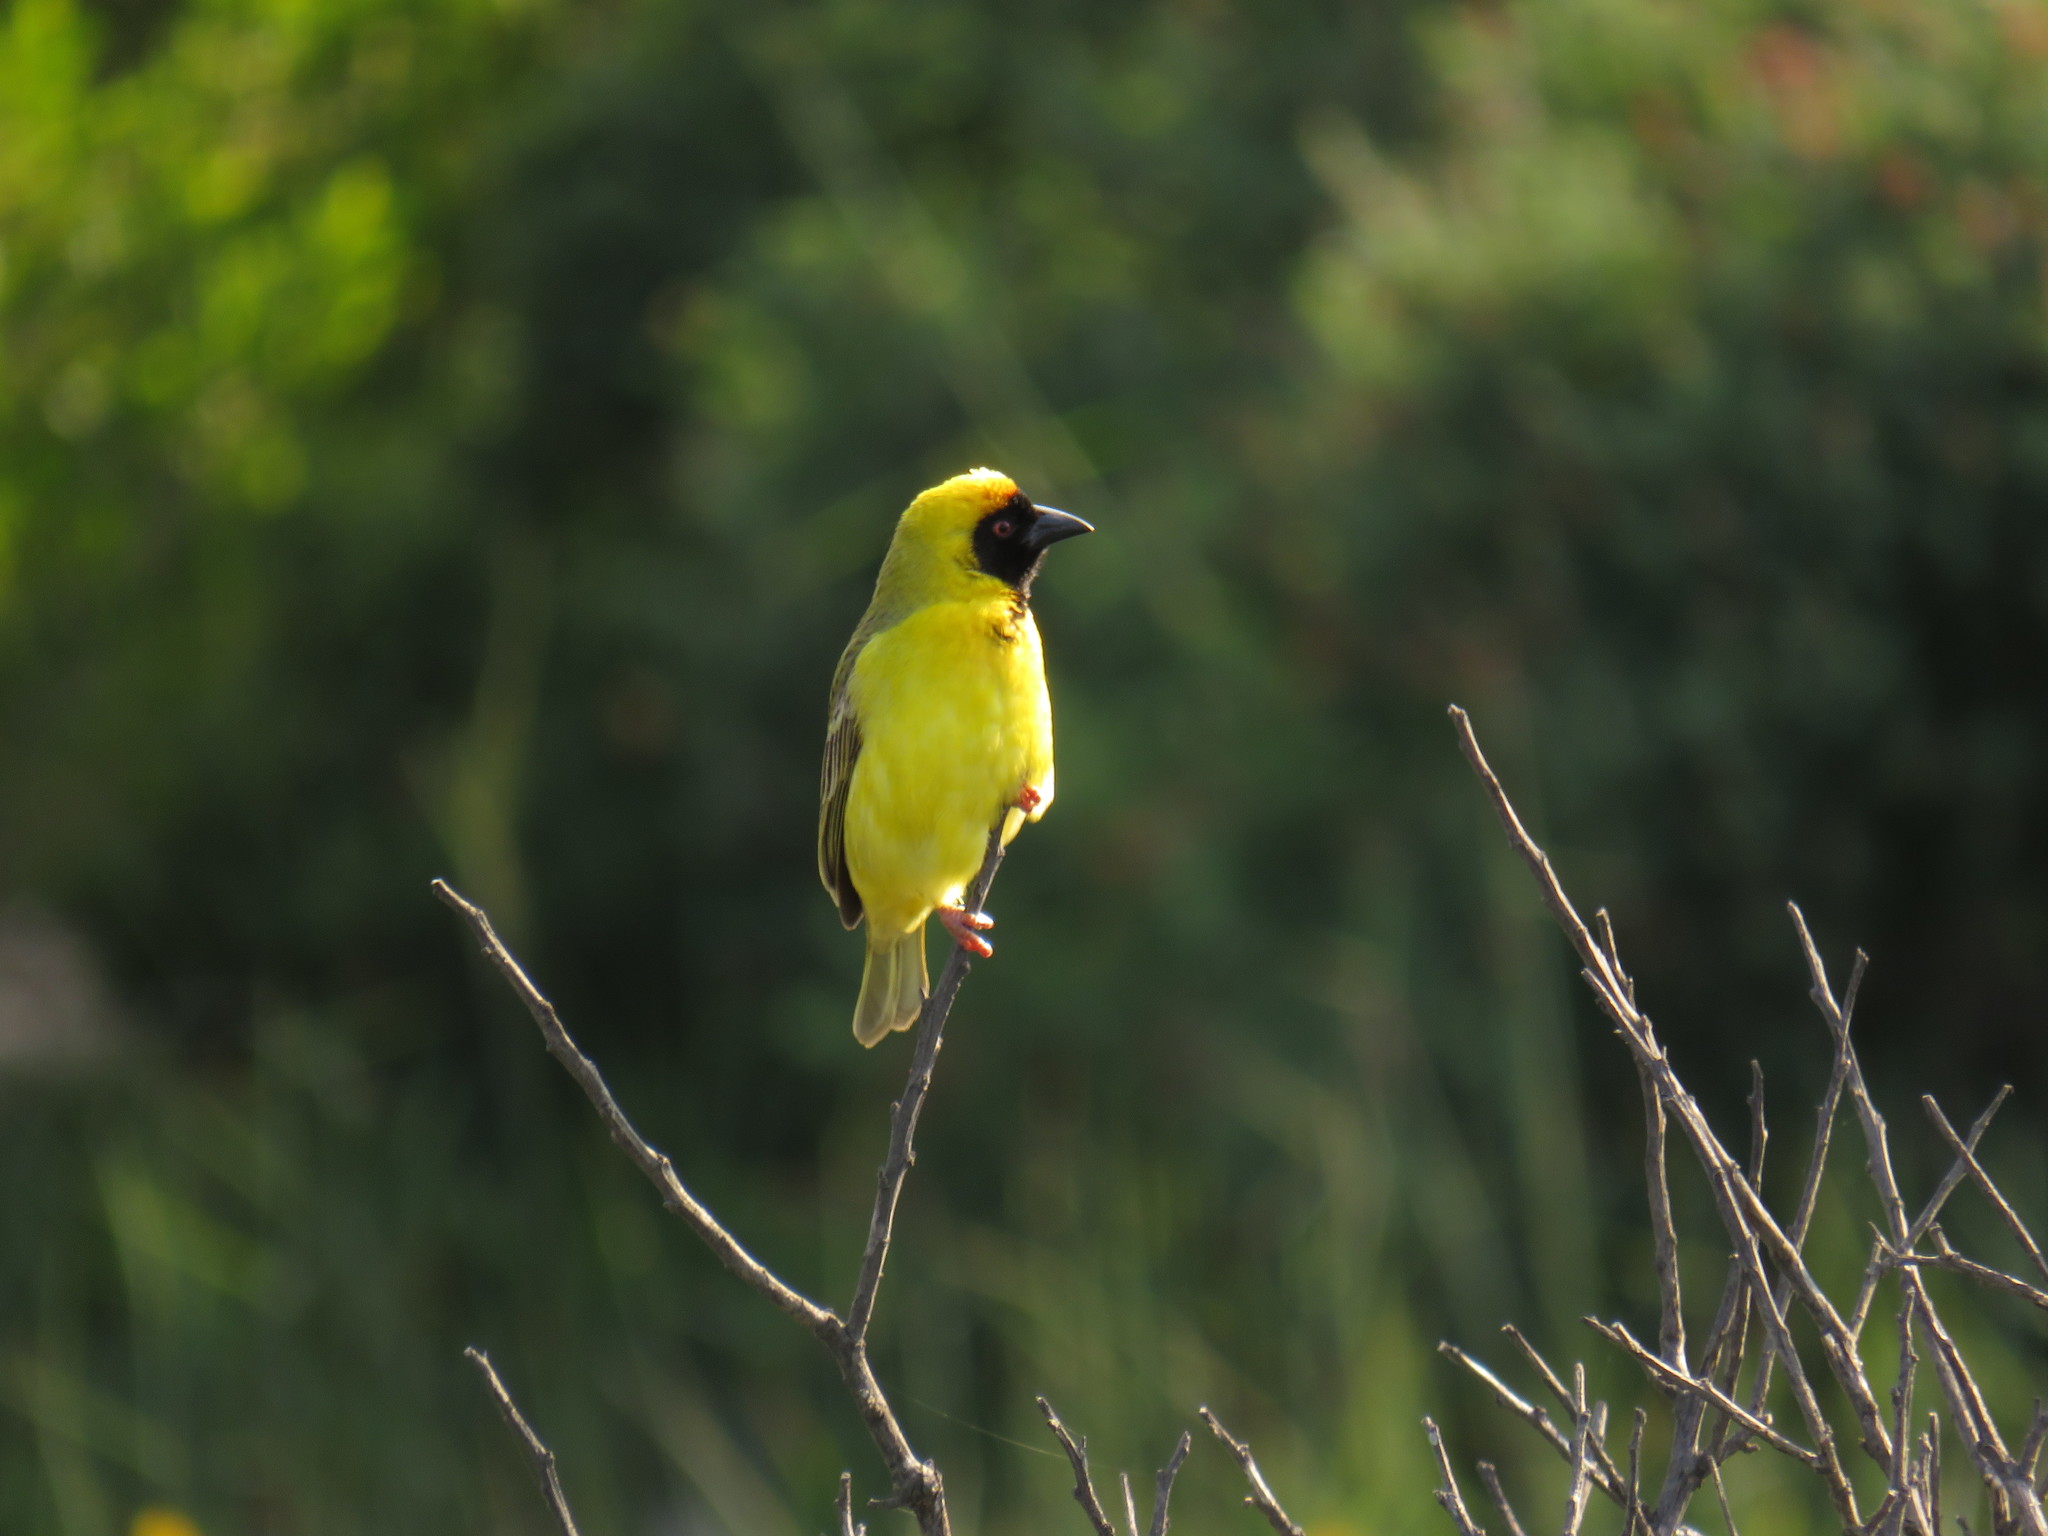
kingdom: Animalia
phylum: Chordata
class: Aves
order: Passeriformes
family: Ploceidae
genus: Ploceus
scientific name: Ploceus velatus
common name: Southern masked weaver
